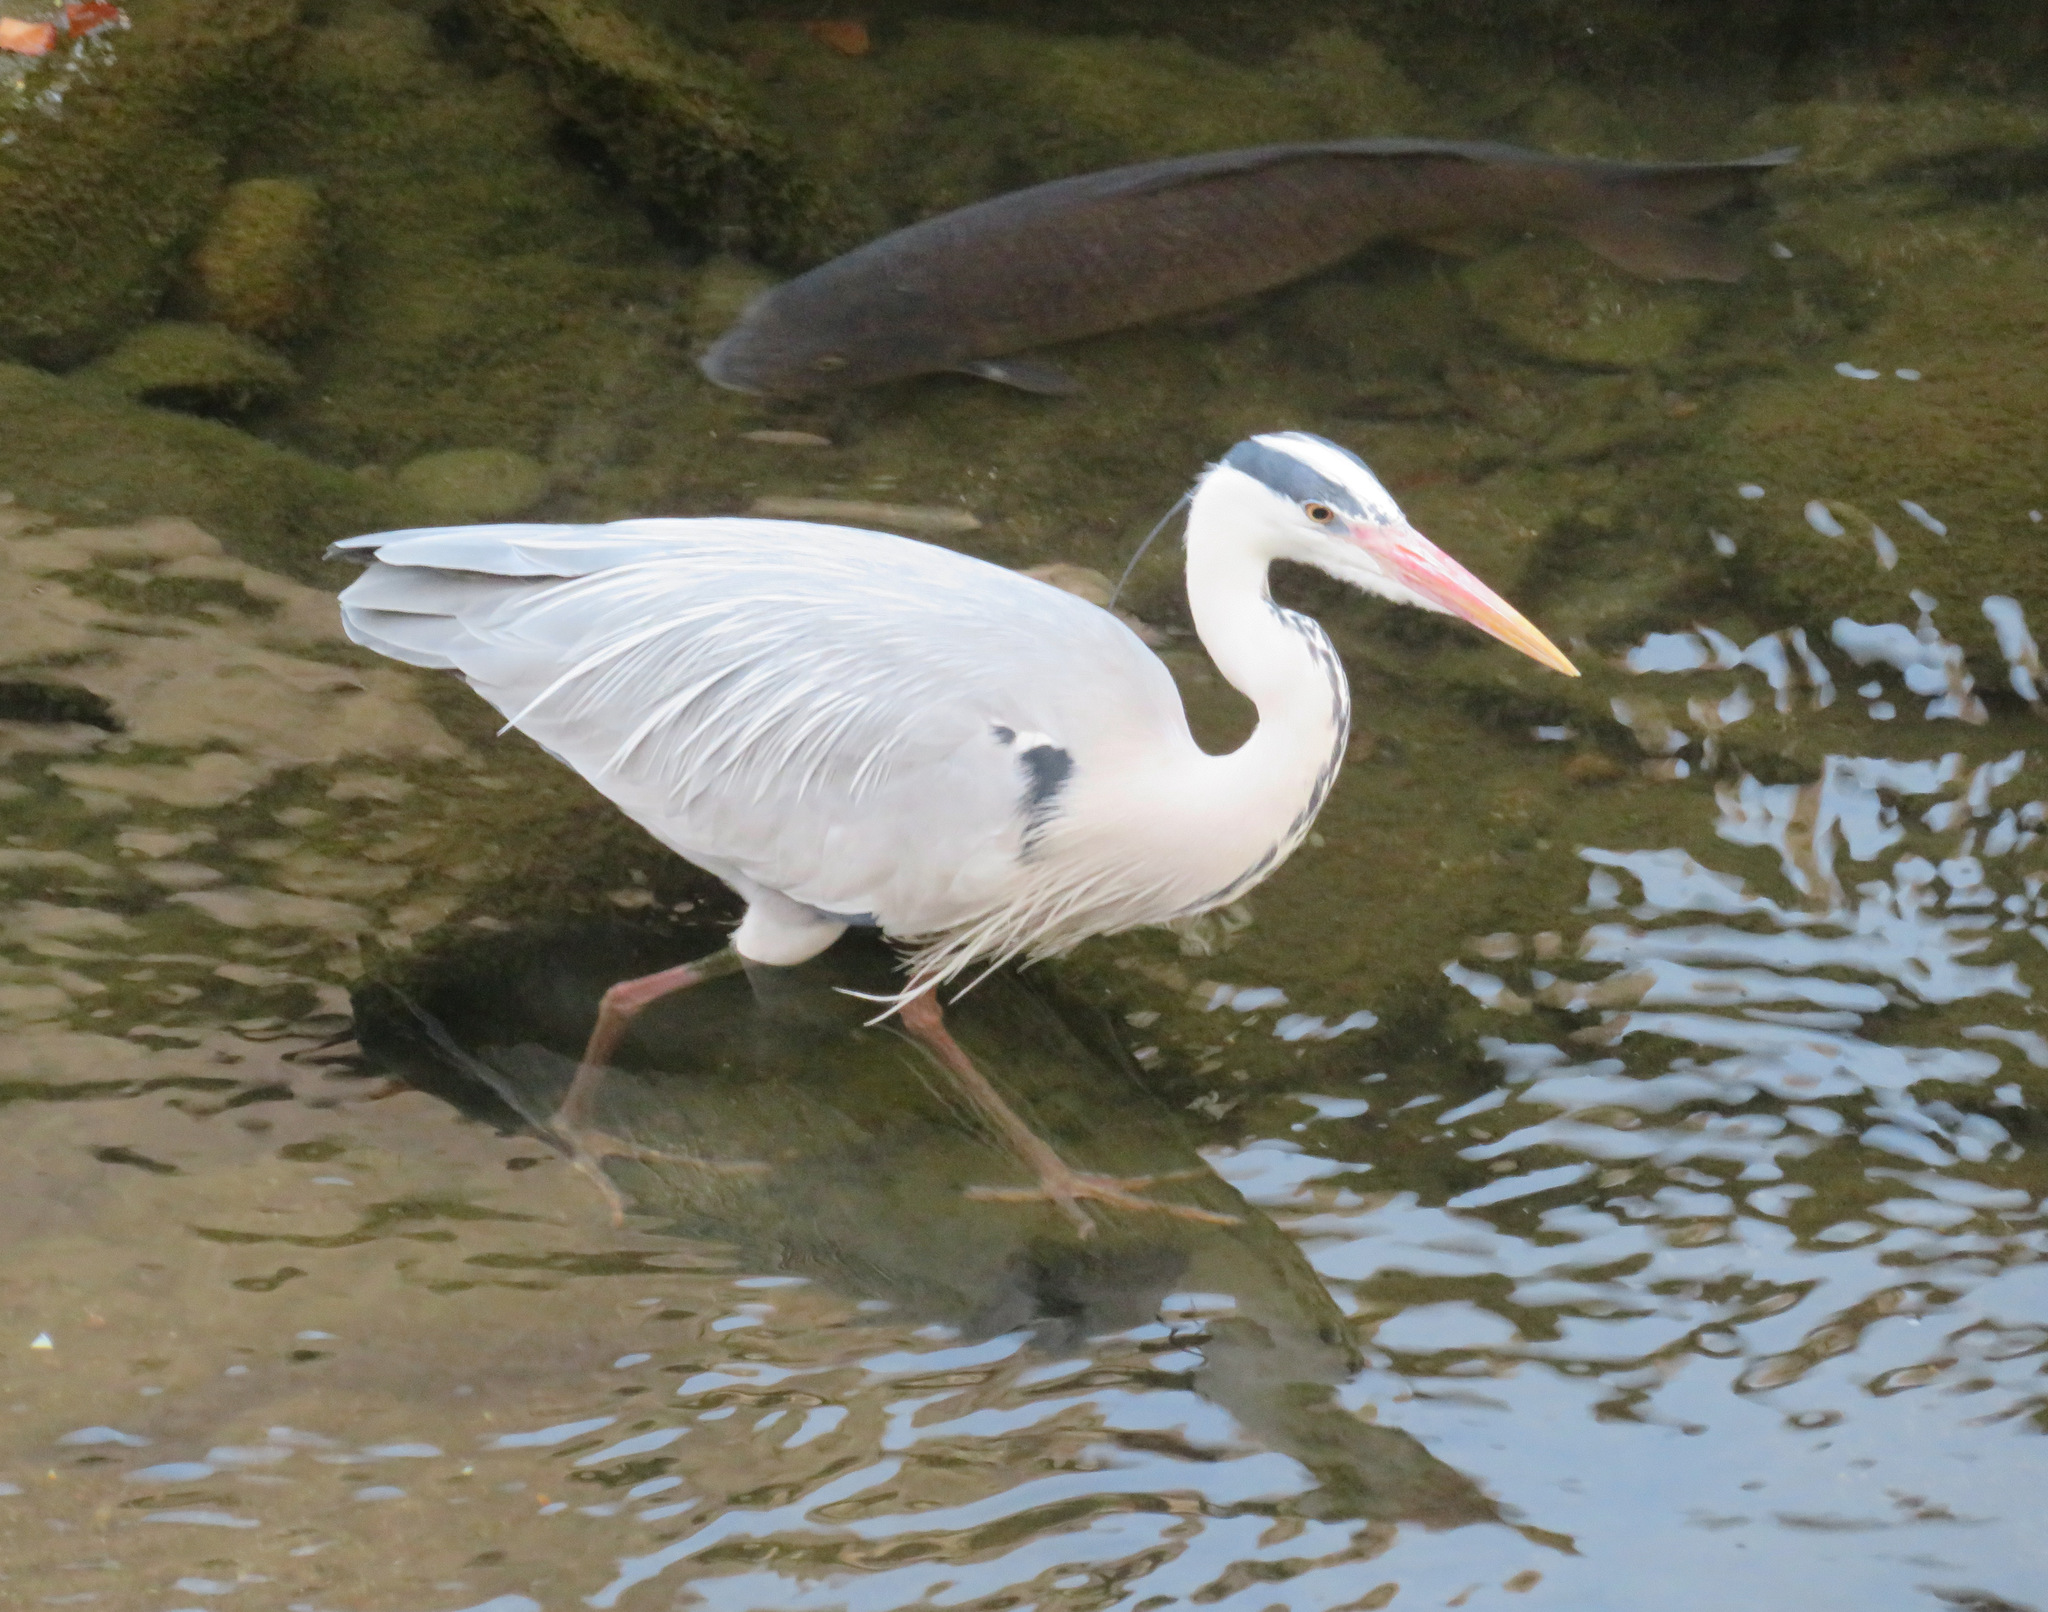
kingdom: Animalia
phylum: Chordata
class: Aves
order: Pelecaniformes
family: Ardeidae
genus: Ardea
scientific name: Ardea cinerea
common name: Grey heron
